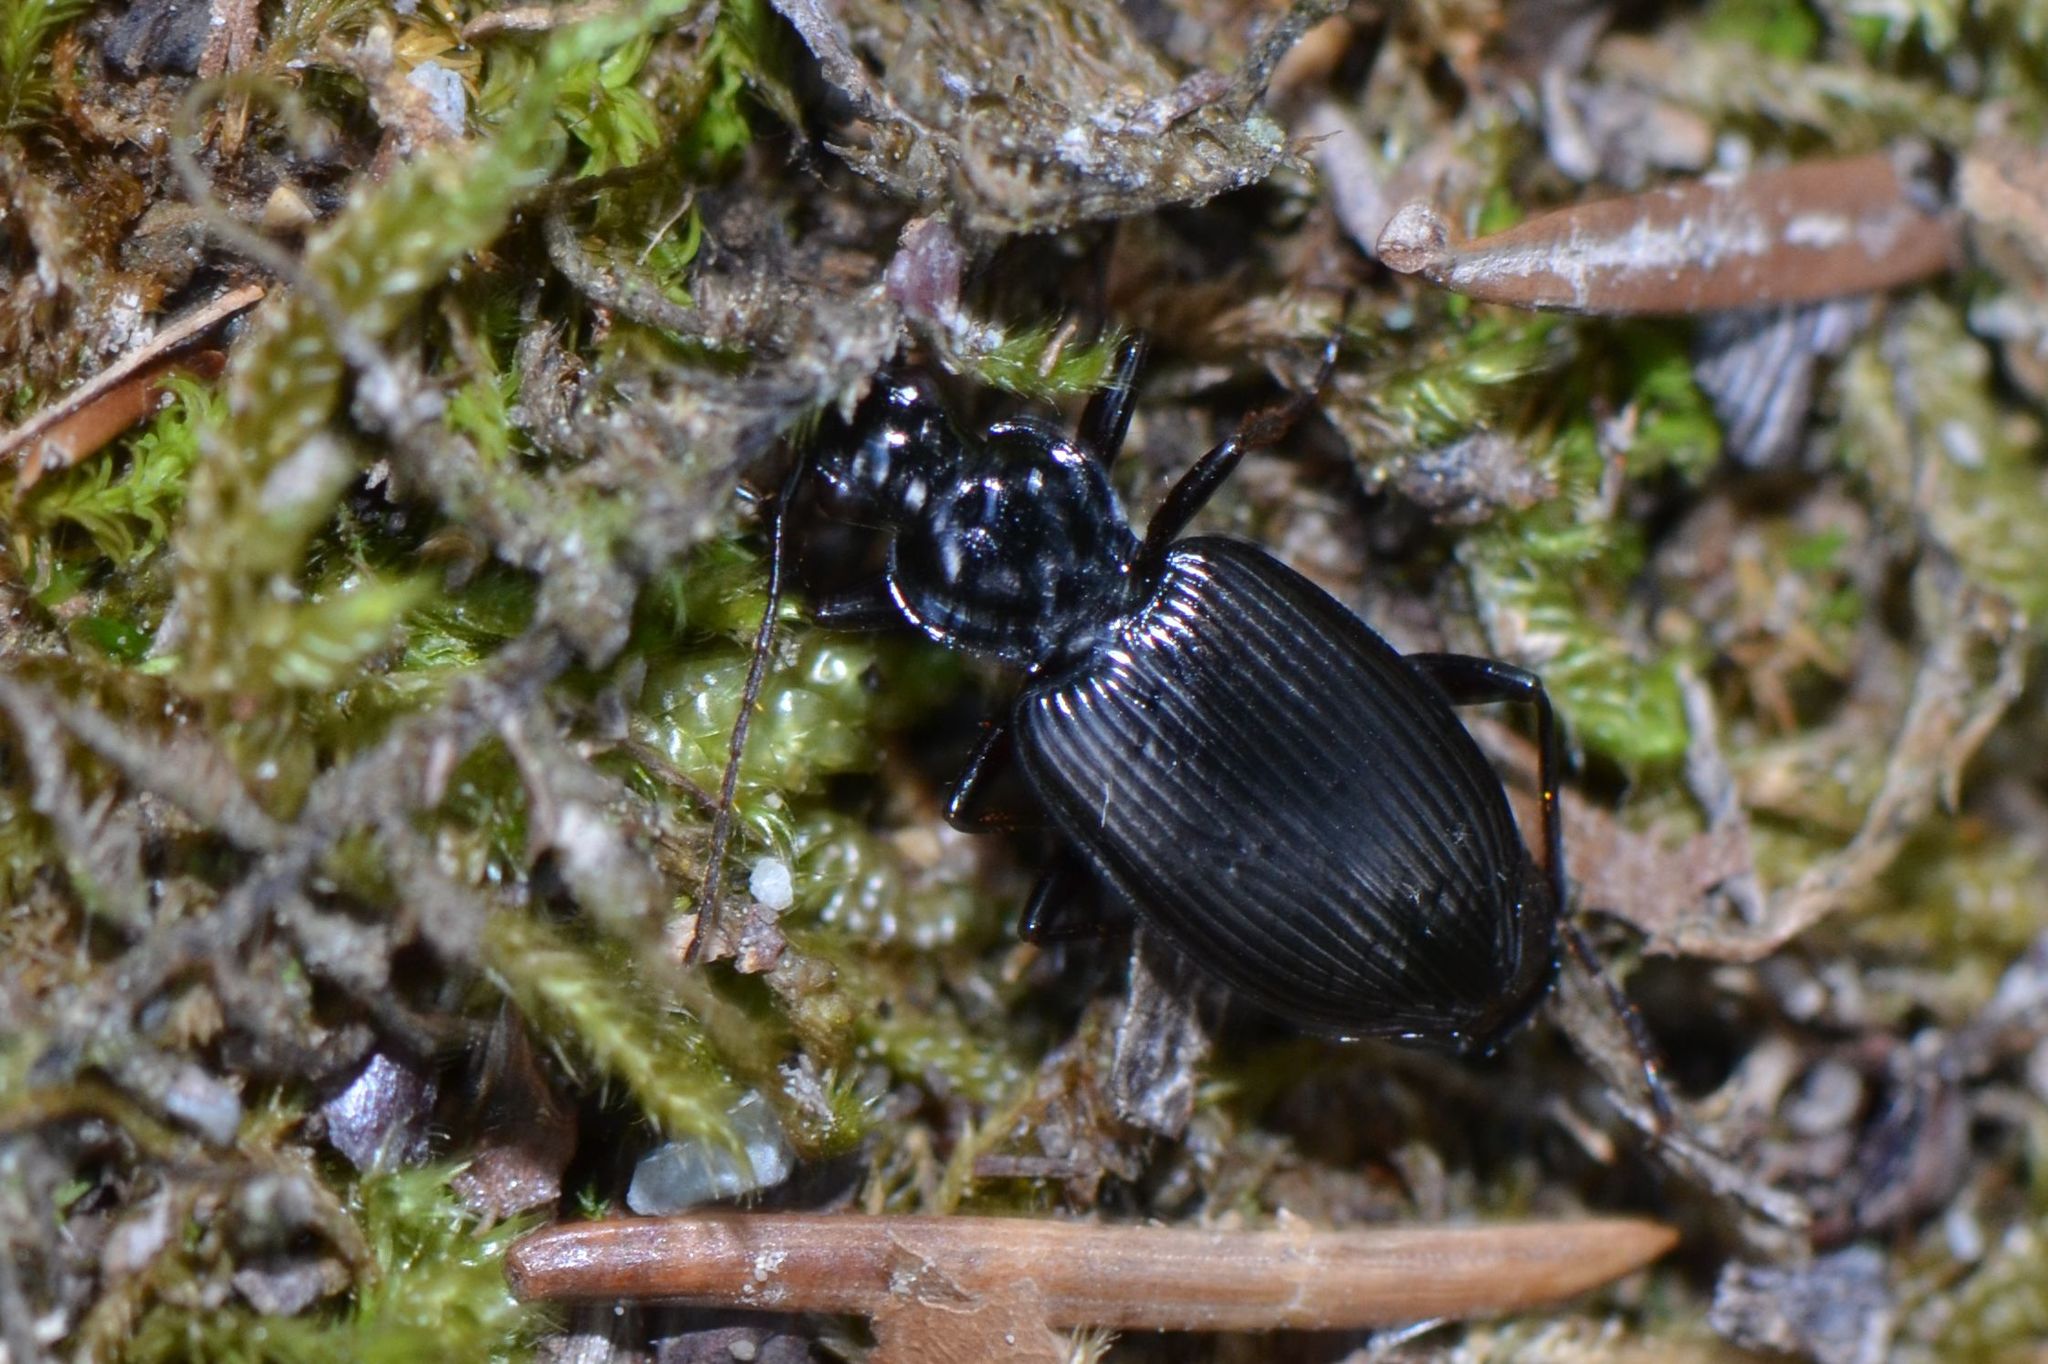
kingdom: Animalia
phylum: Arthropoda
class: Insecta
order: Coleoptera
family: Carabidae
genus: Platynus
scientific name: Platynus assimilis
